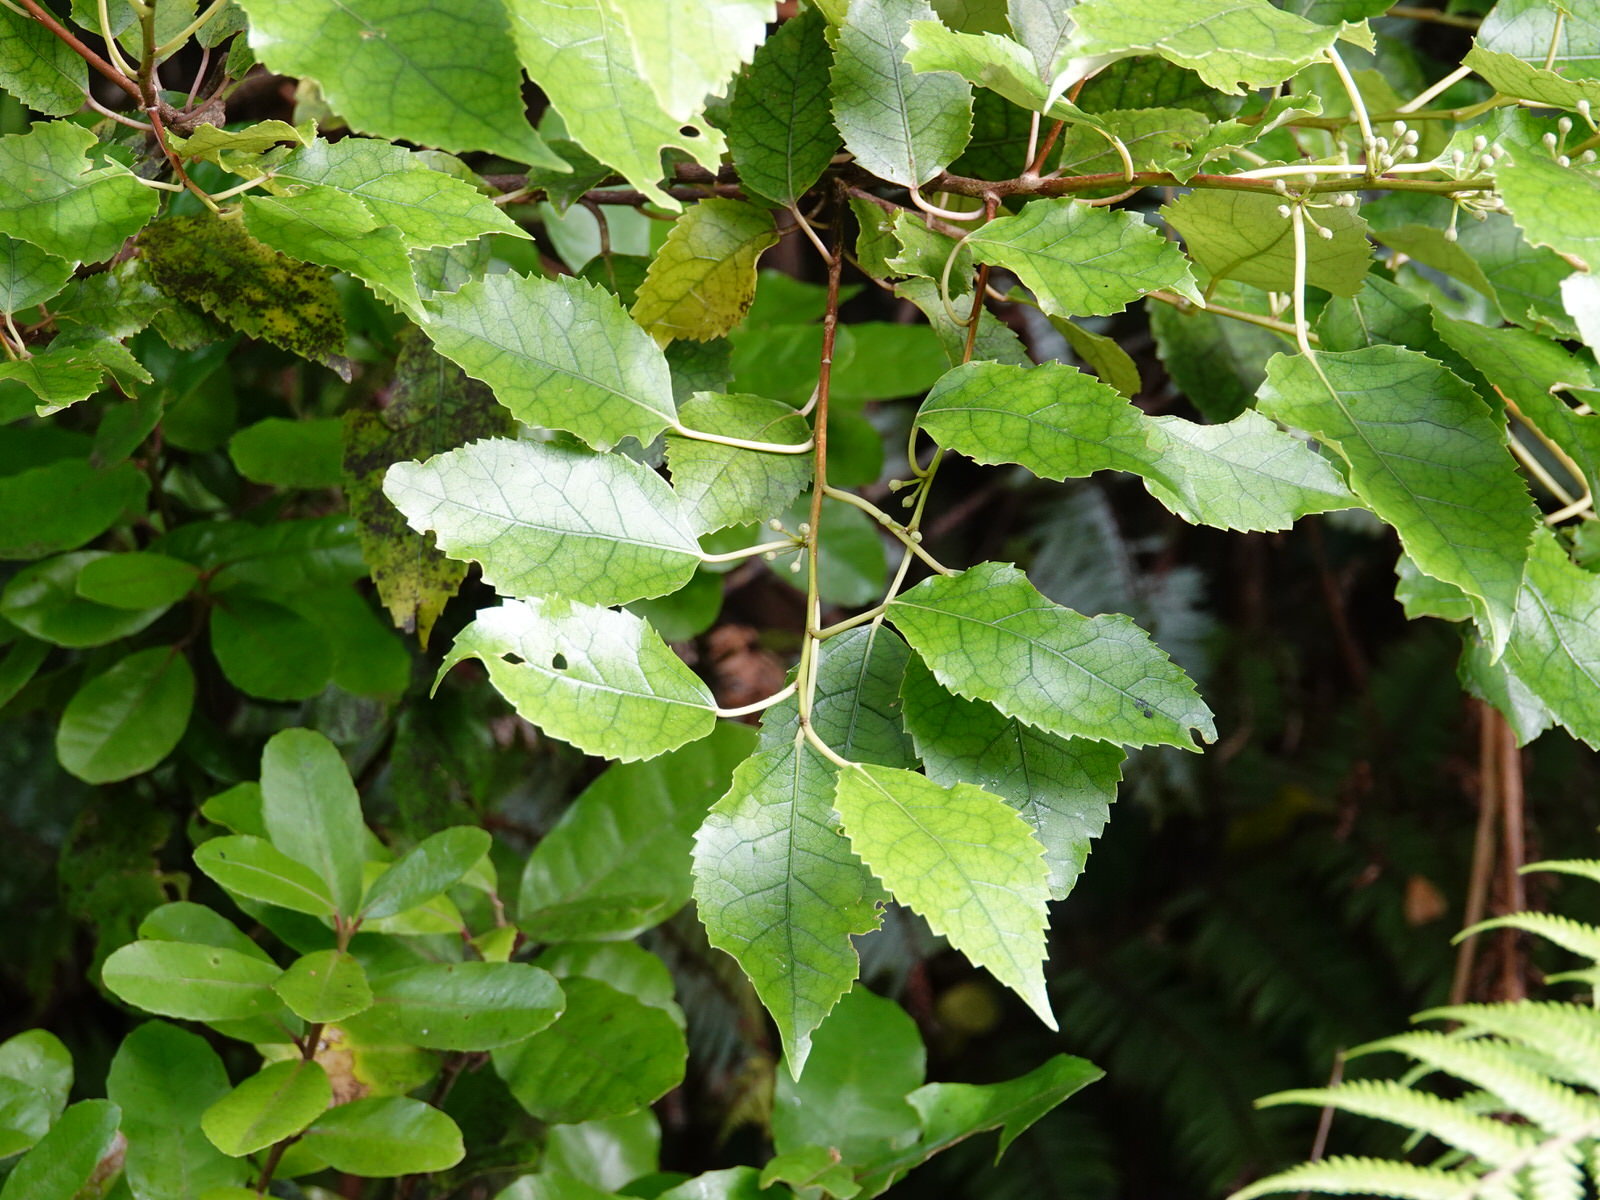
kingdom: Plantae
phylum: Tracheophyta
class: Magnoliopsida
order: Malvales
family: Malvaceae
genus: Hoheria
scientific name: Hoheria populnea
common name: Lacebark
